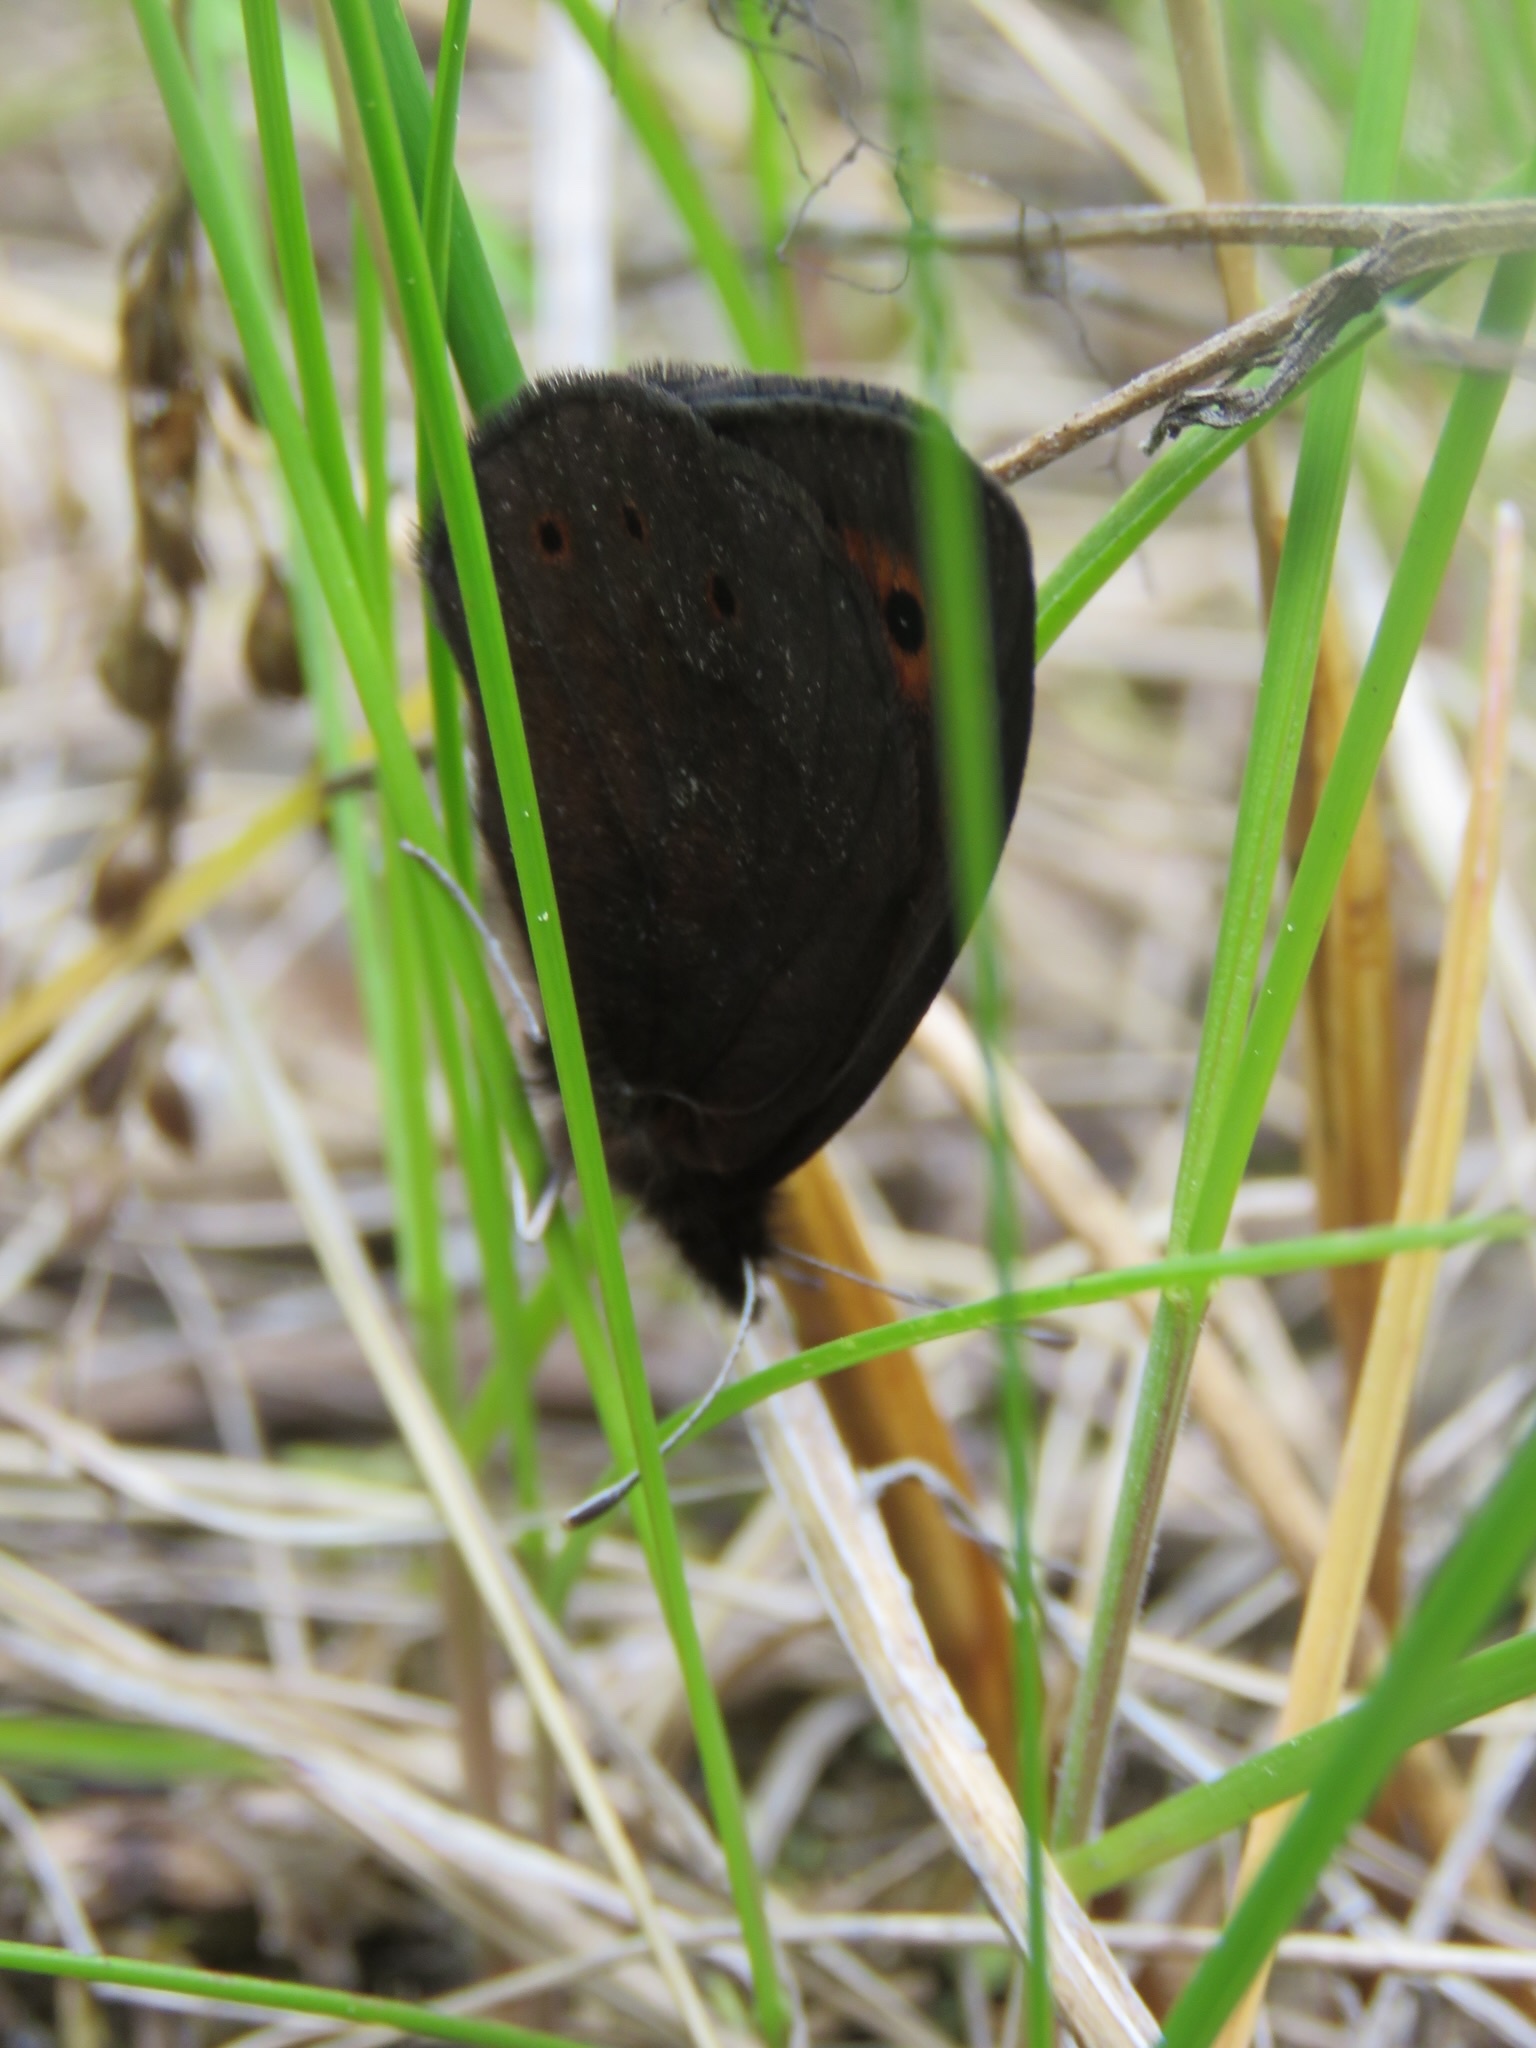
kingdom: Animalia
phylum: Arthropoda
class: Insecta
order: Lepidoptera
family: Nymphalidae
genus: Erebia
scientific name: Erebia epipsodea
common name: Common alpine
